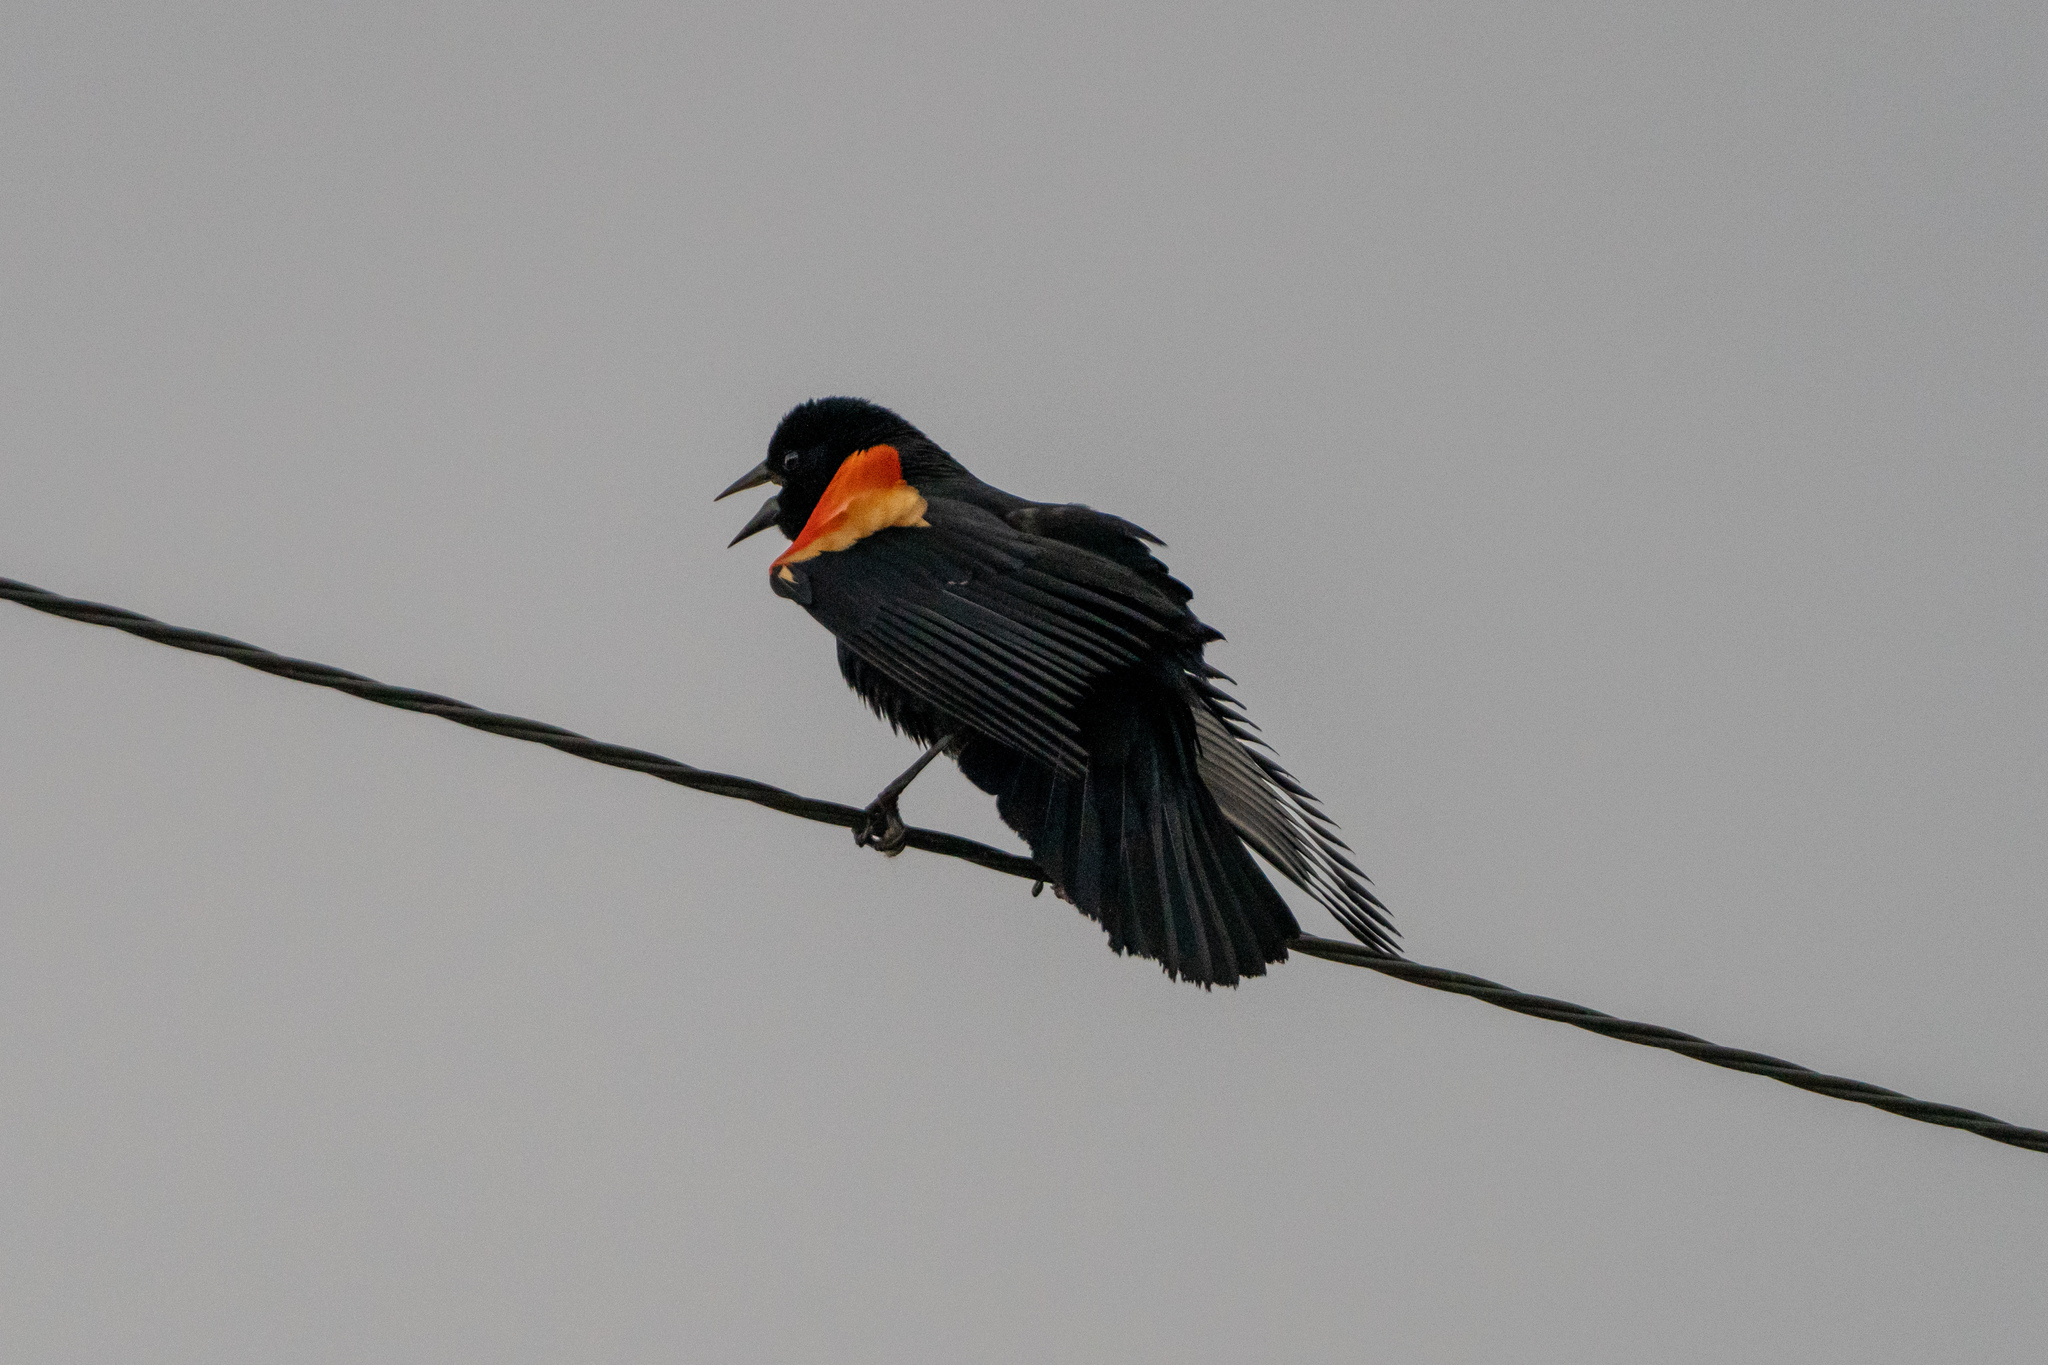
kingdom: Animalia
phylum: Chordata
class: Aves
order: Passeriformes
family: Icteridae
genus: Agelaius
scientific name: Agelaius phoeniceus
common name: Red-winged blackbird
